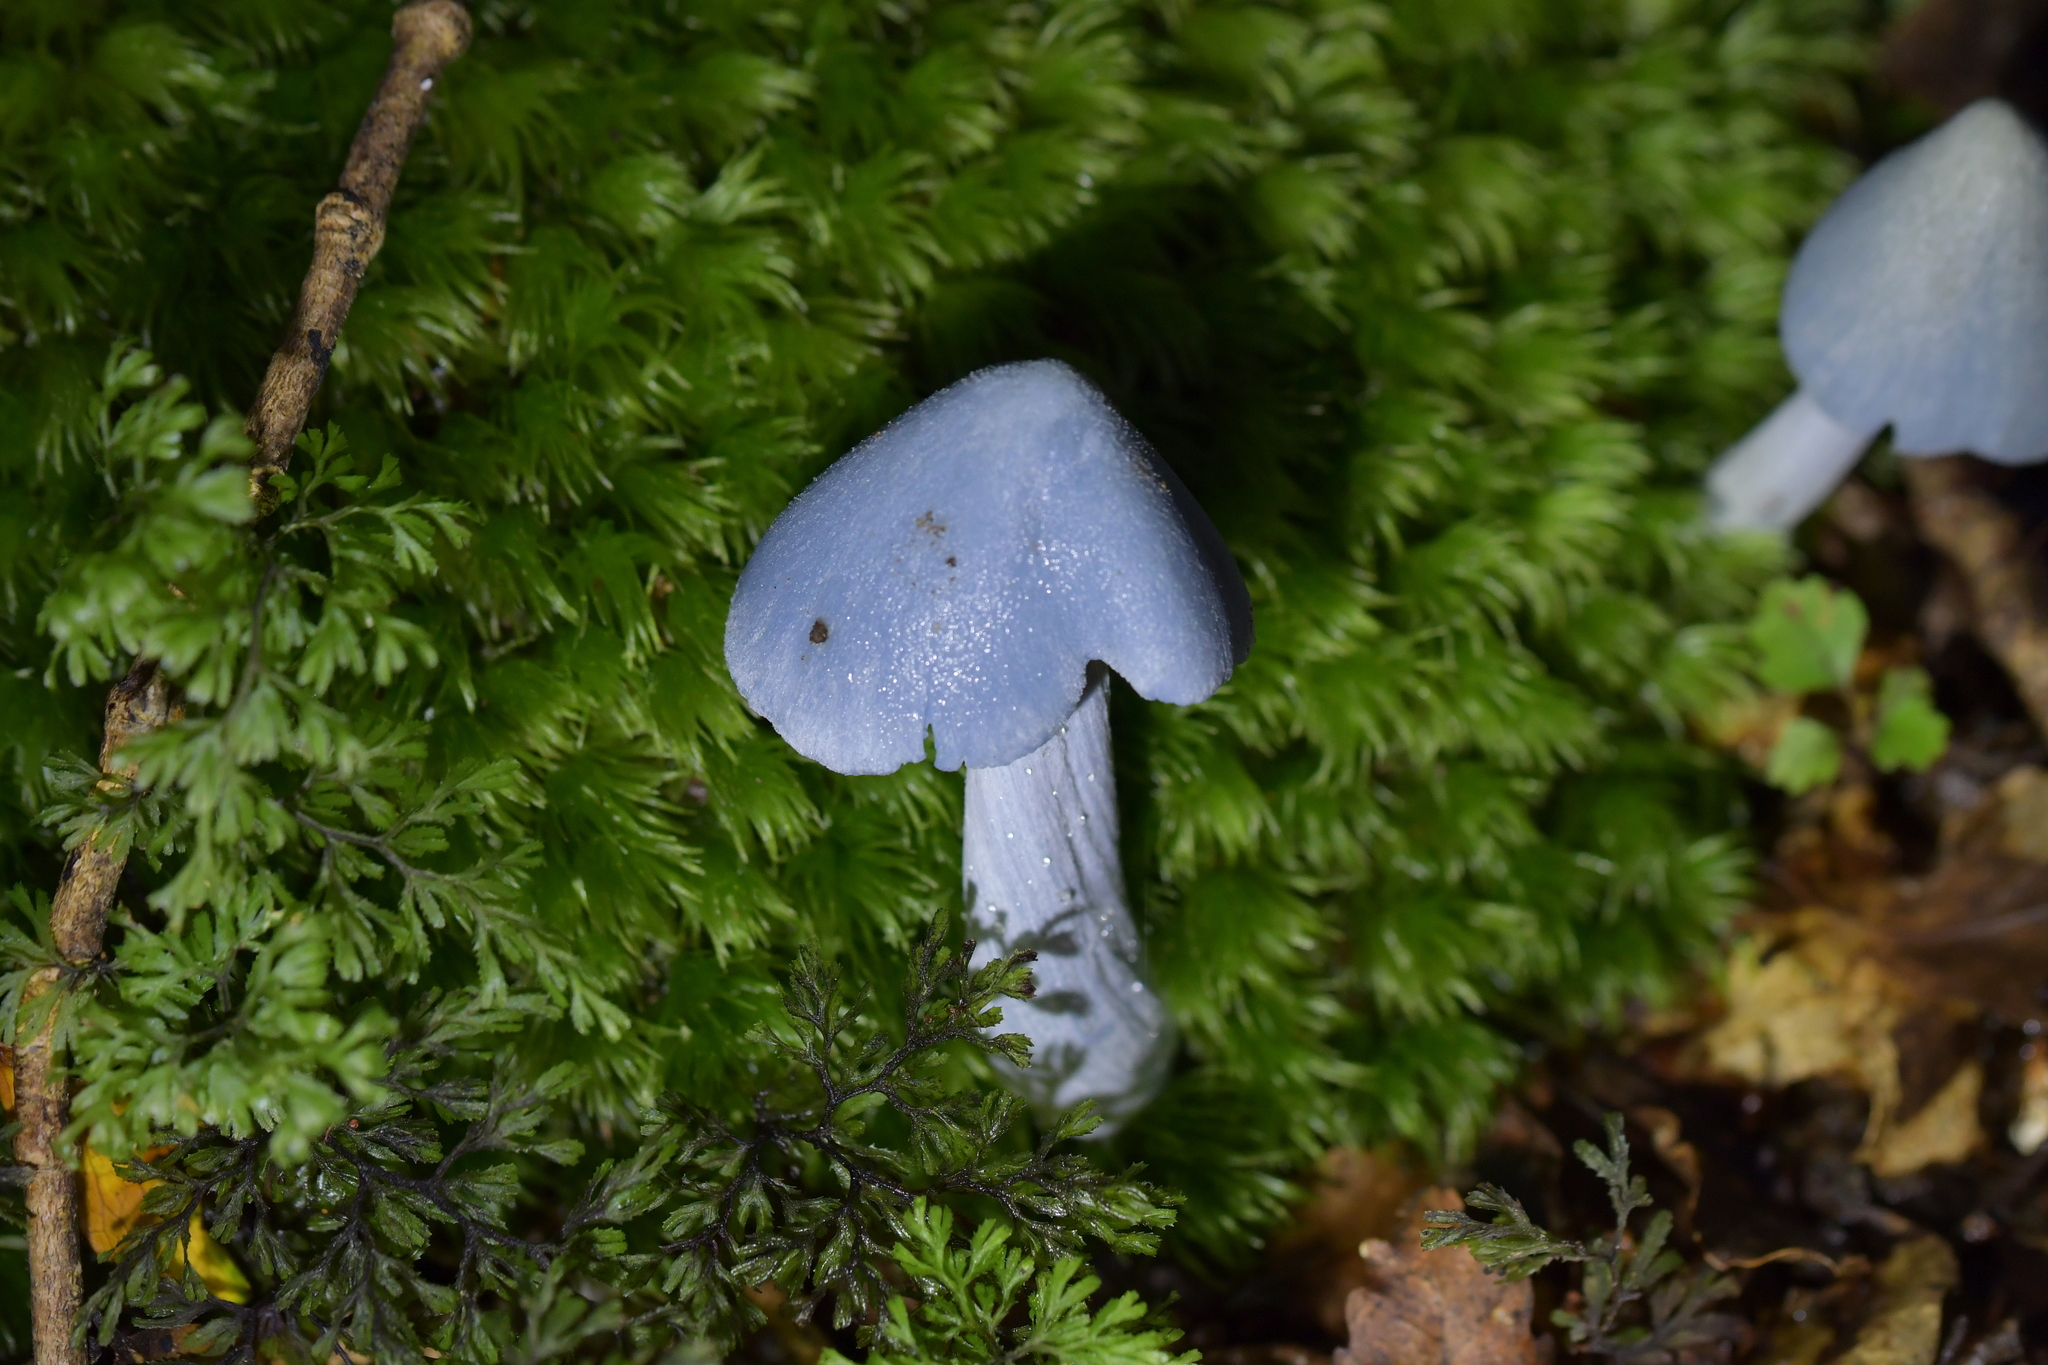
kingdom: Fungi
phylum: Basidiomycota
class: Agaricomycetes
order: Agaricales
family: Entolomataceae
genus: Entoloma
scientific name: Entoloma hochstetteri
